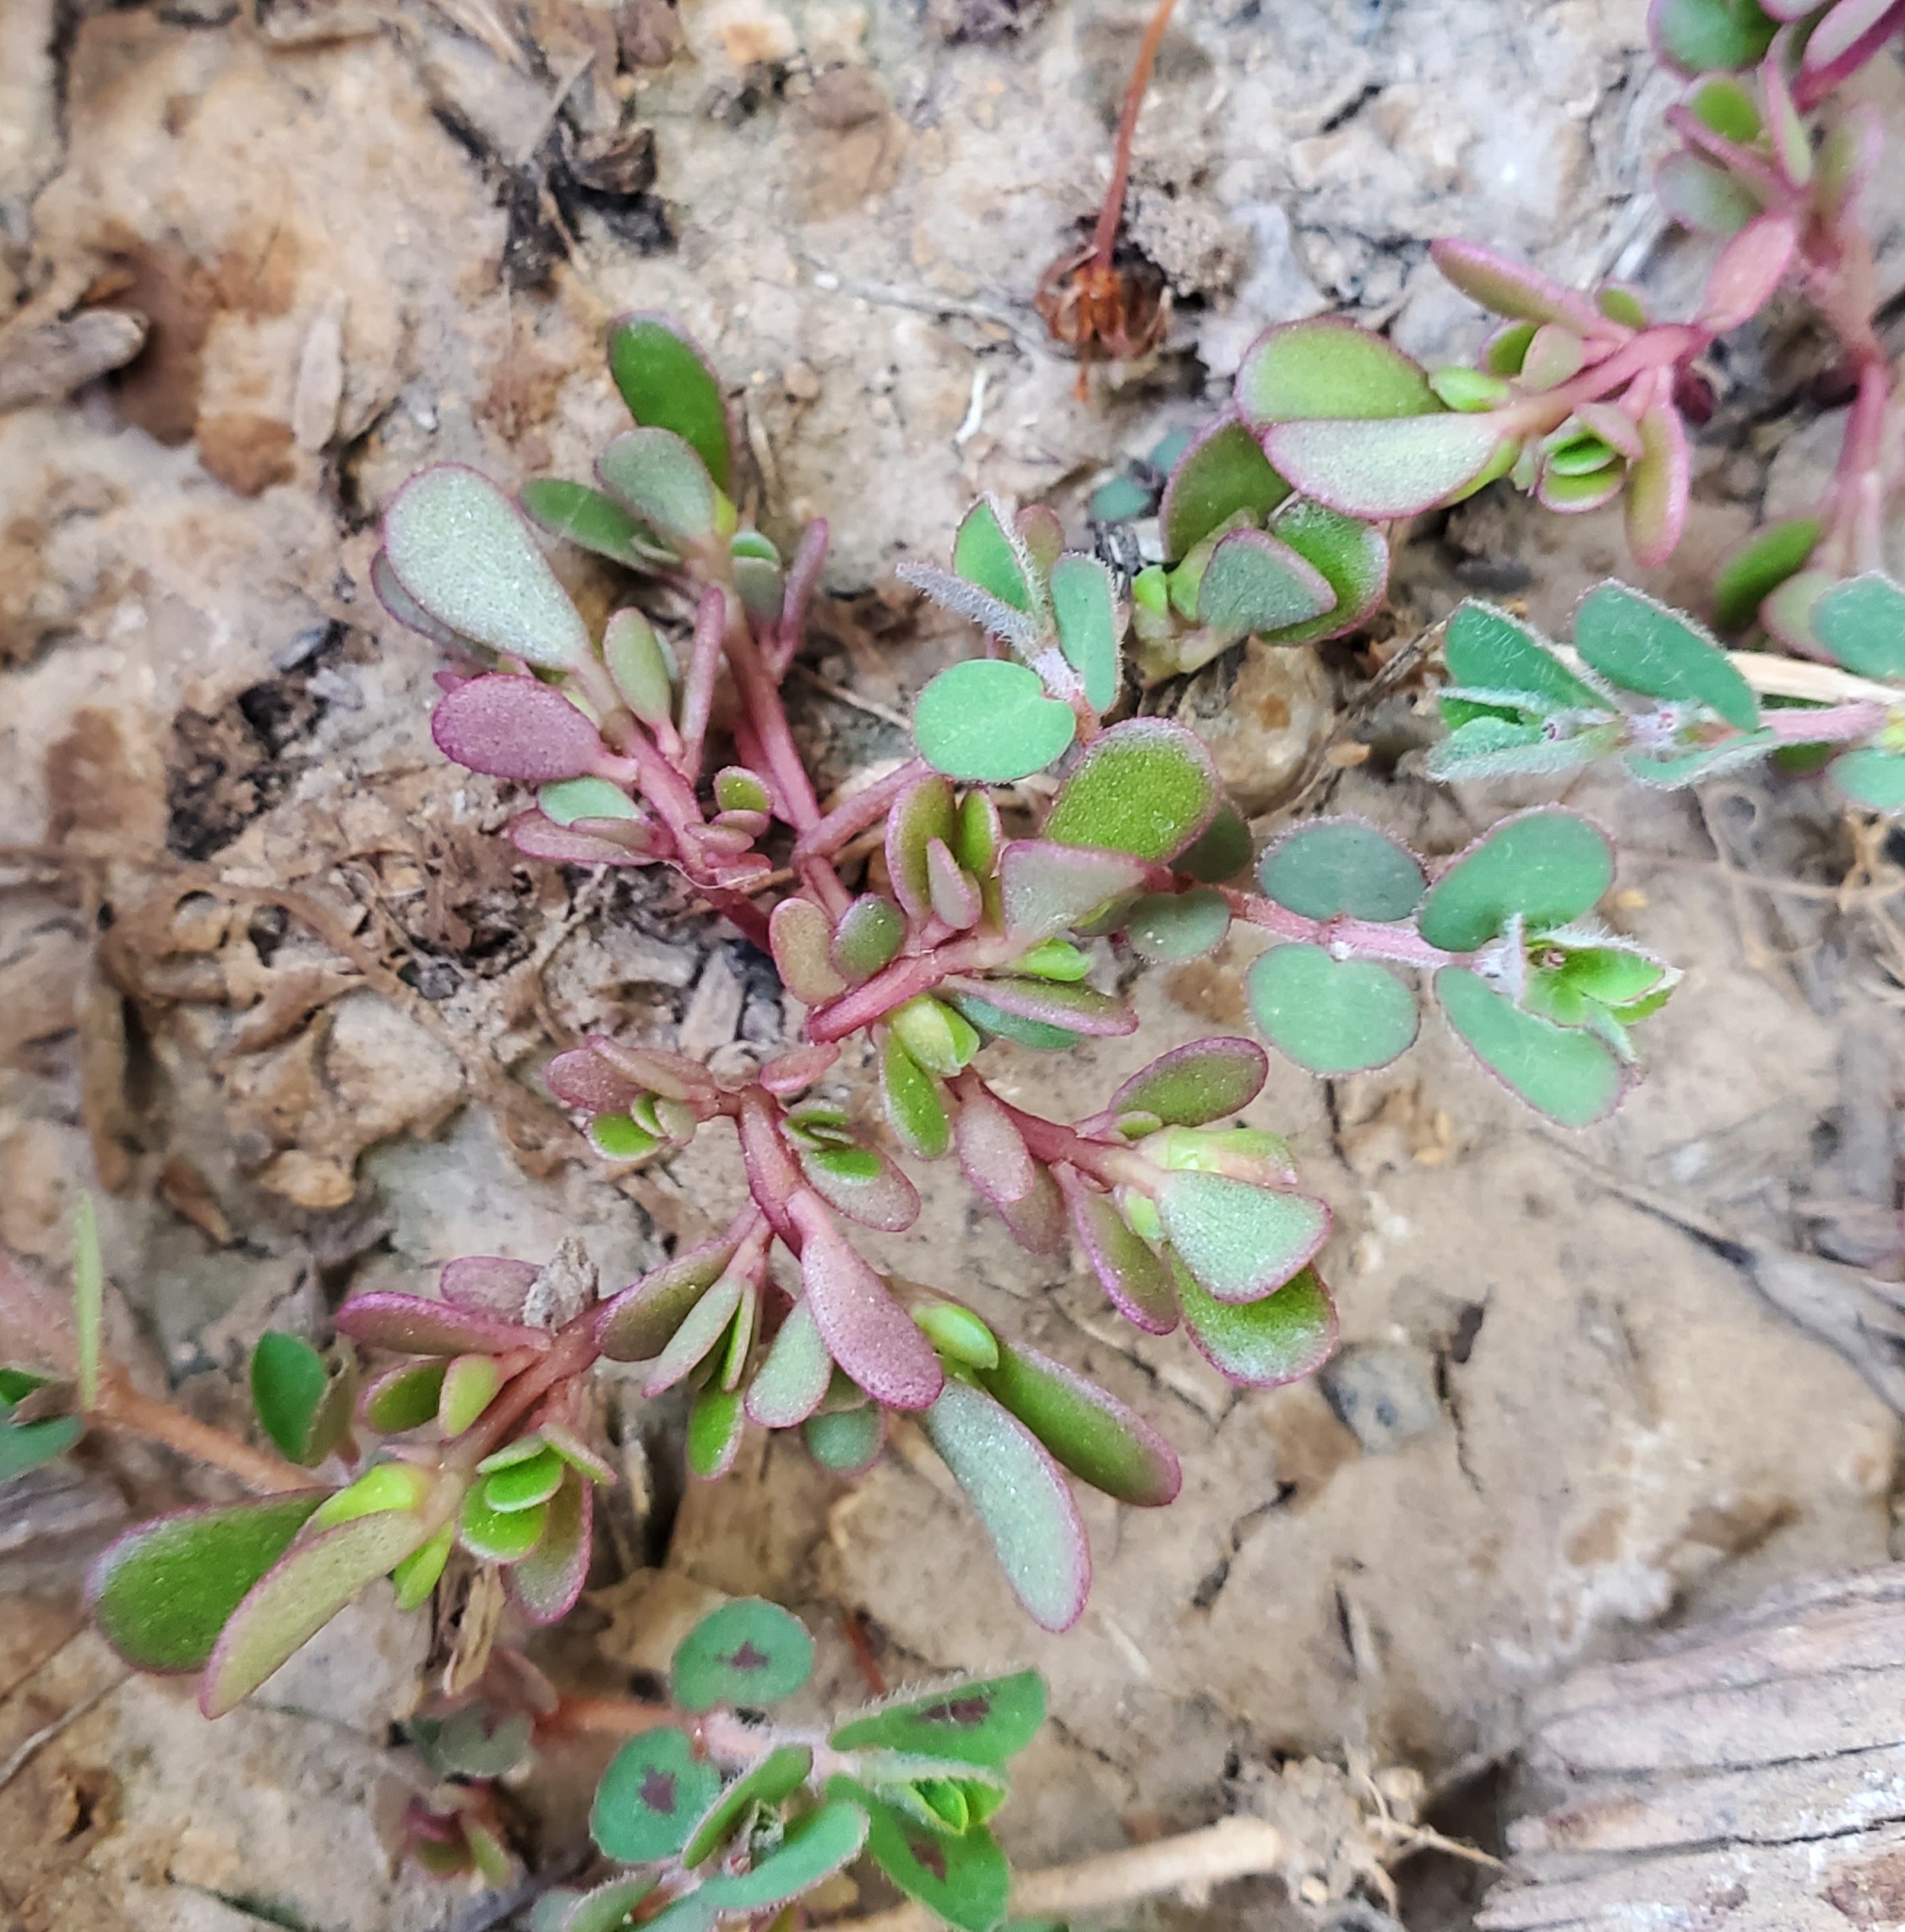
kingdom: Plantae
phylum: Tracheophyta
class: Magnoliopsida
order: Caryophyllales
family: Portulacaceae
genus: Portulaca
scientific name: Portulaca oleracea
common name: Common purslane
